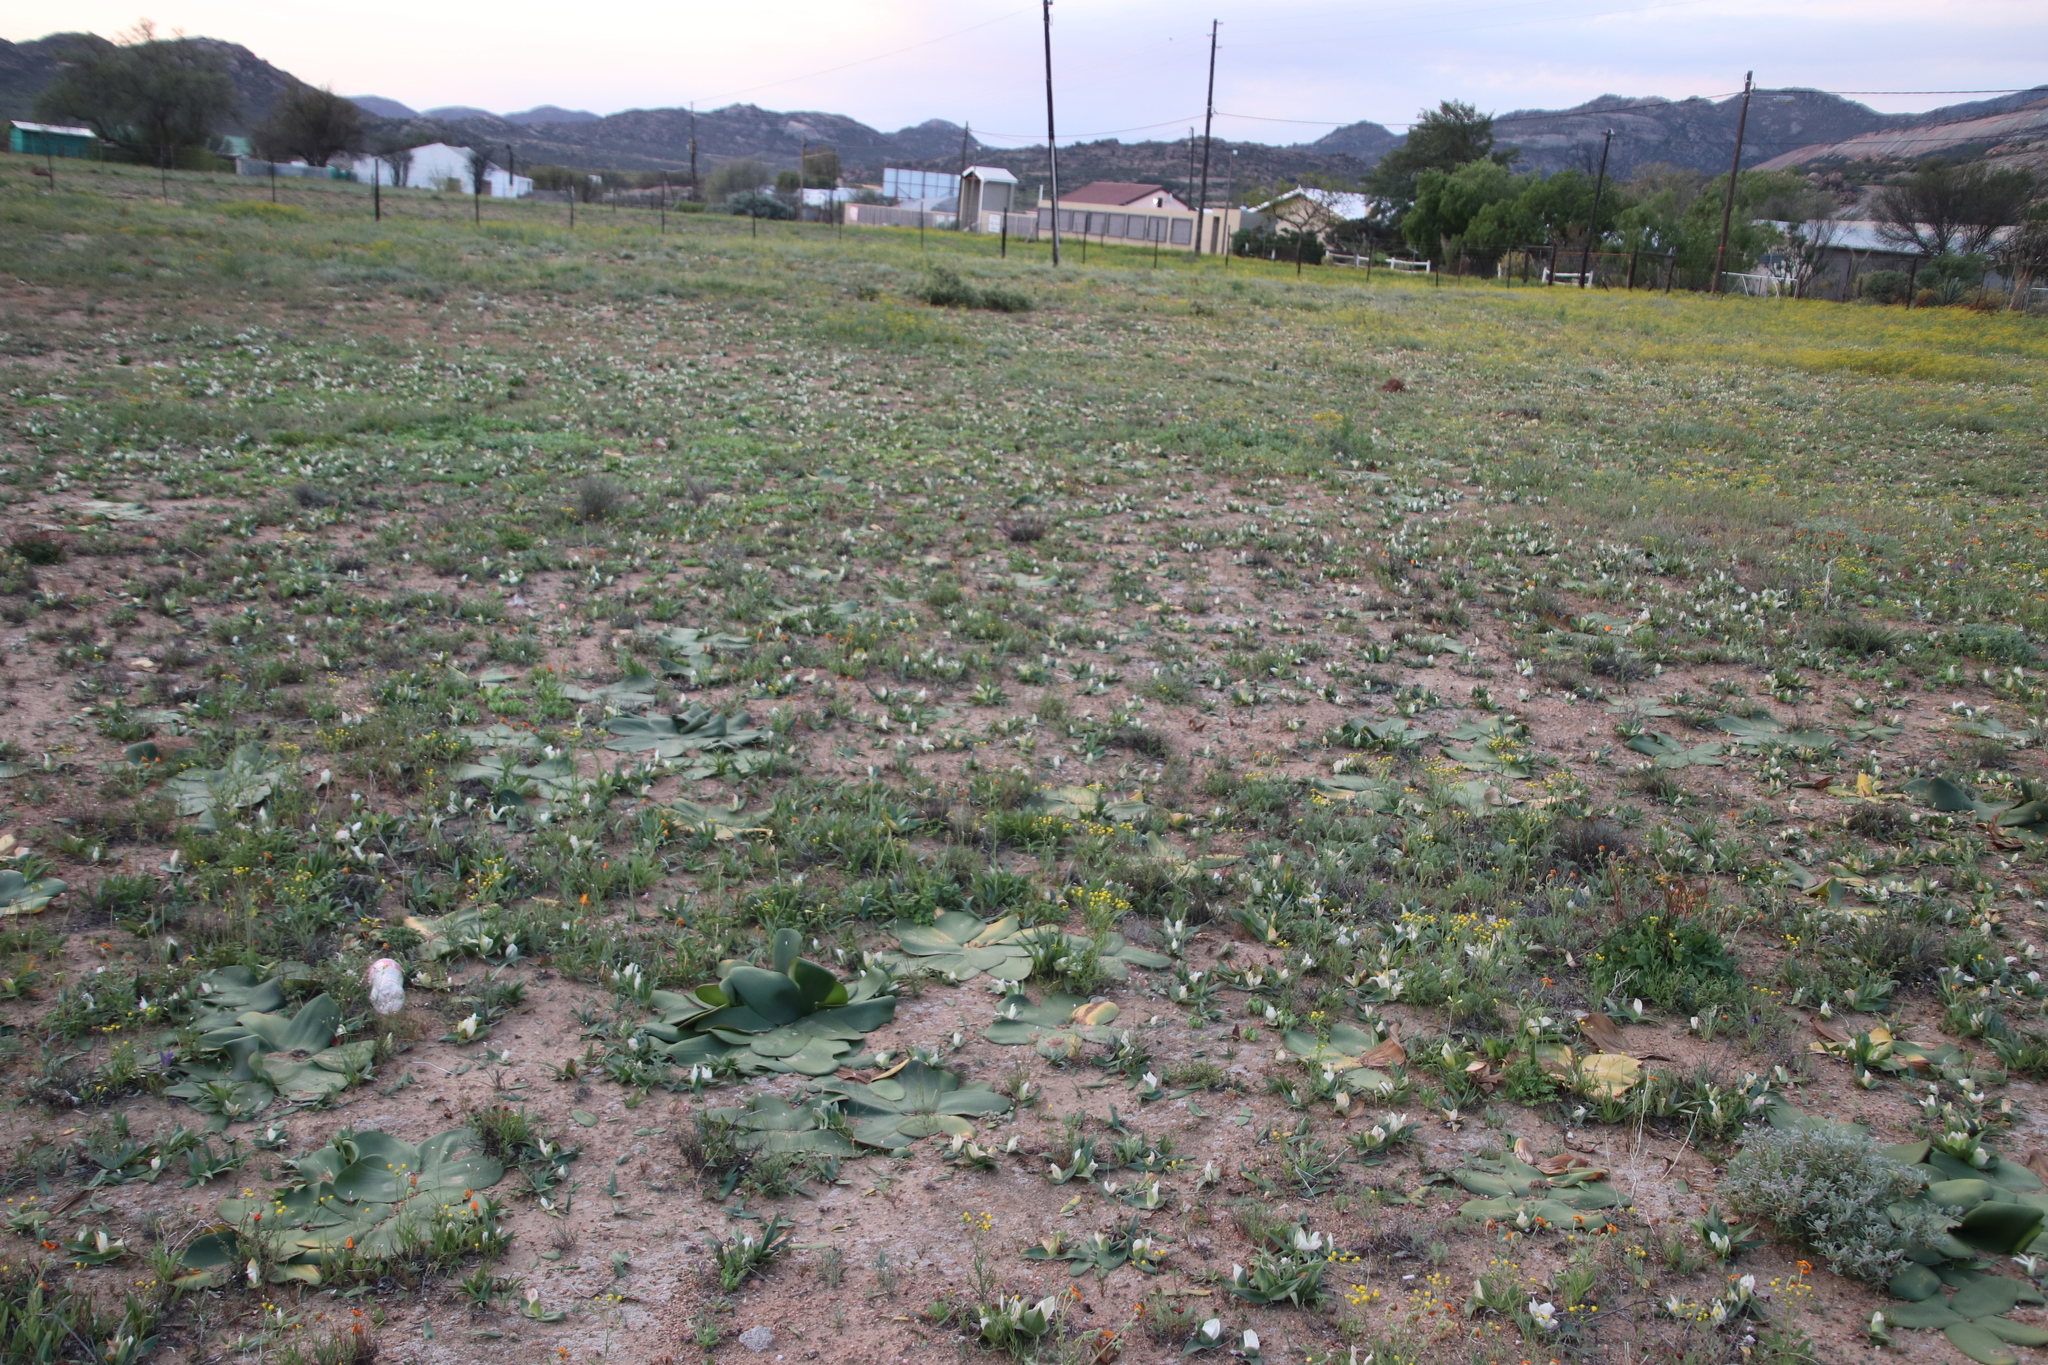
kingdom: Plantae
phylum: Tracheophyta
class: Liliopsida
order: Asparagales
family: Amaryllidaceae
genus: Brunsvigia
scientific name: Brunsvigia bosmaniae
